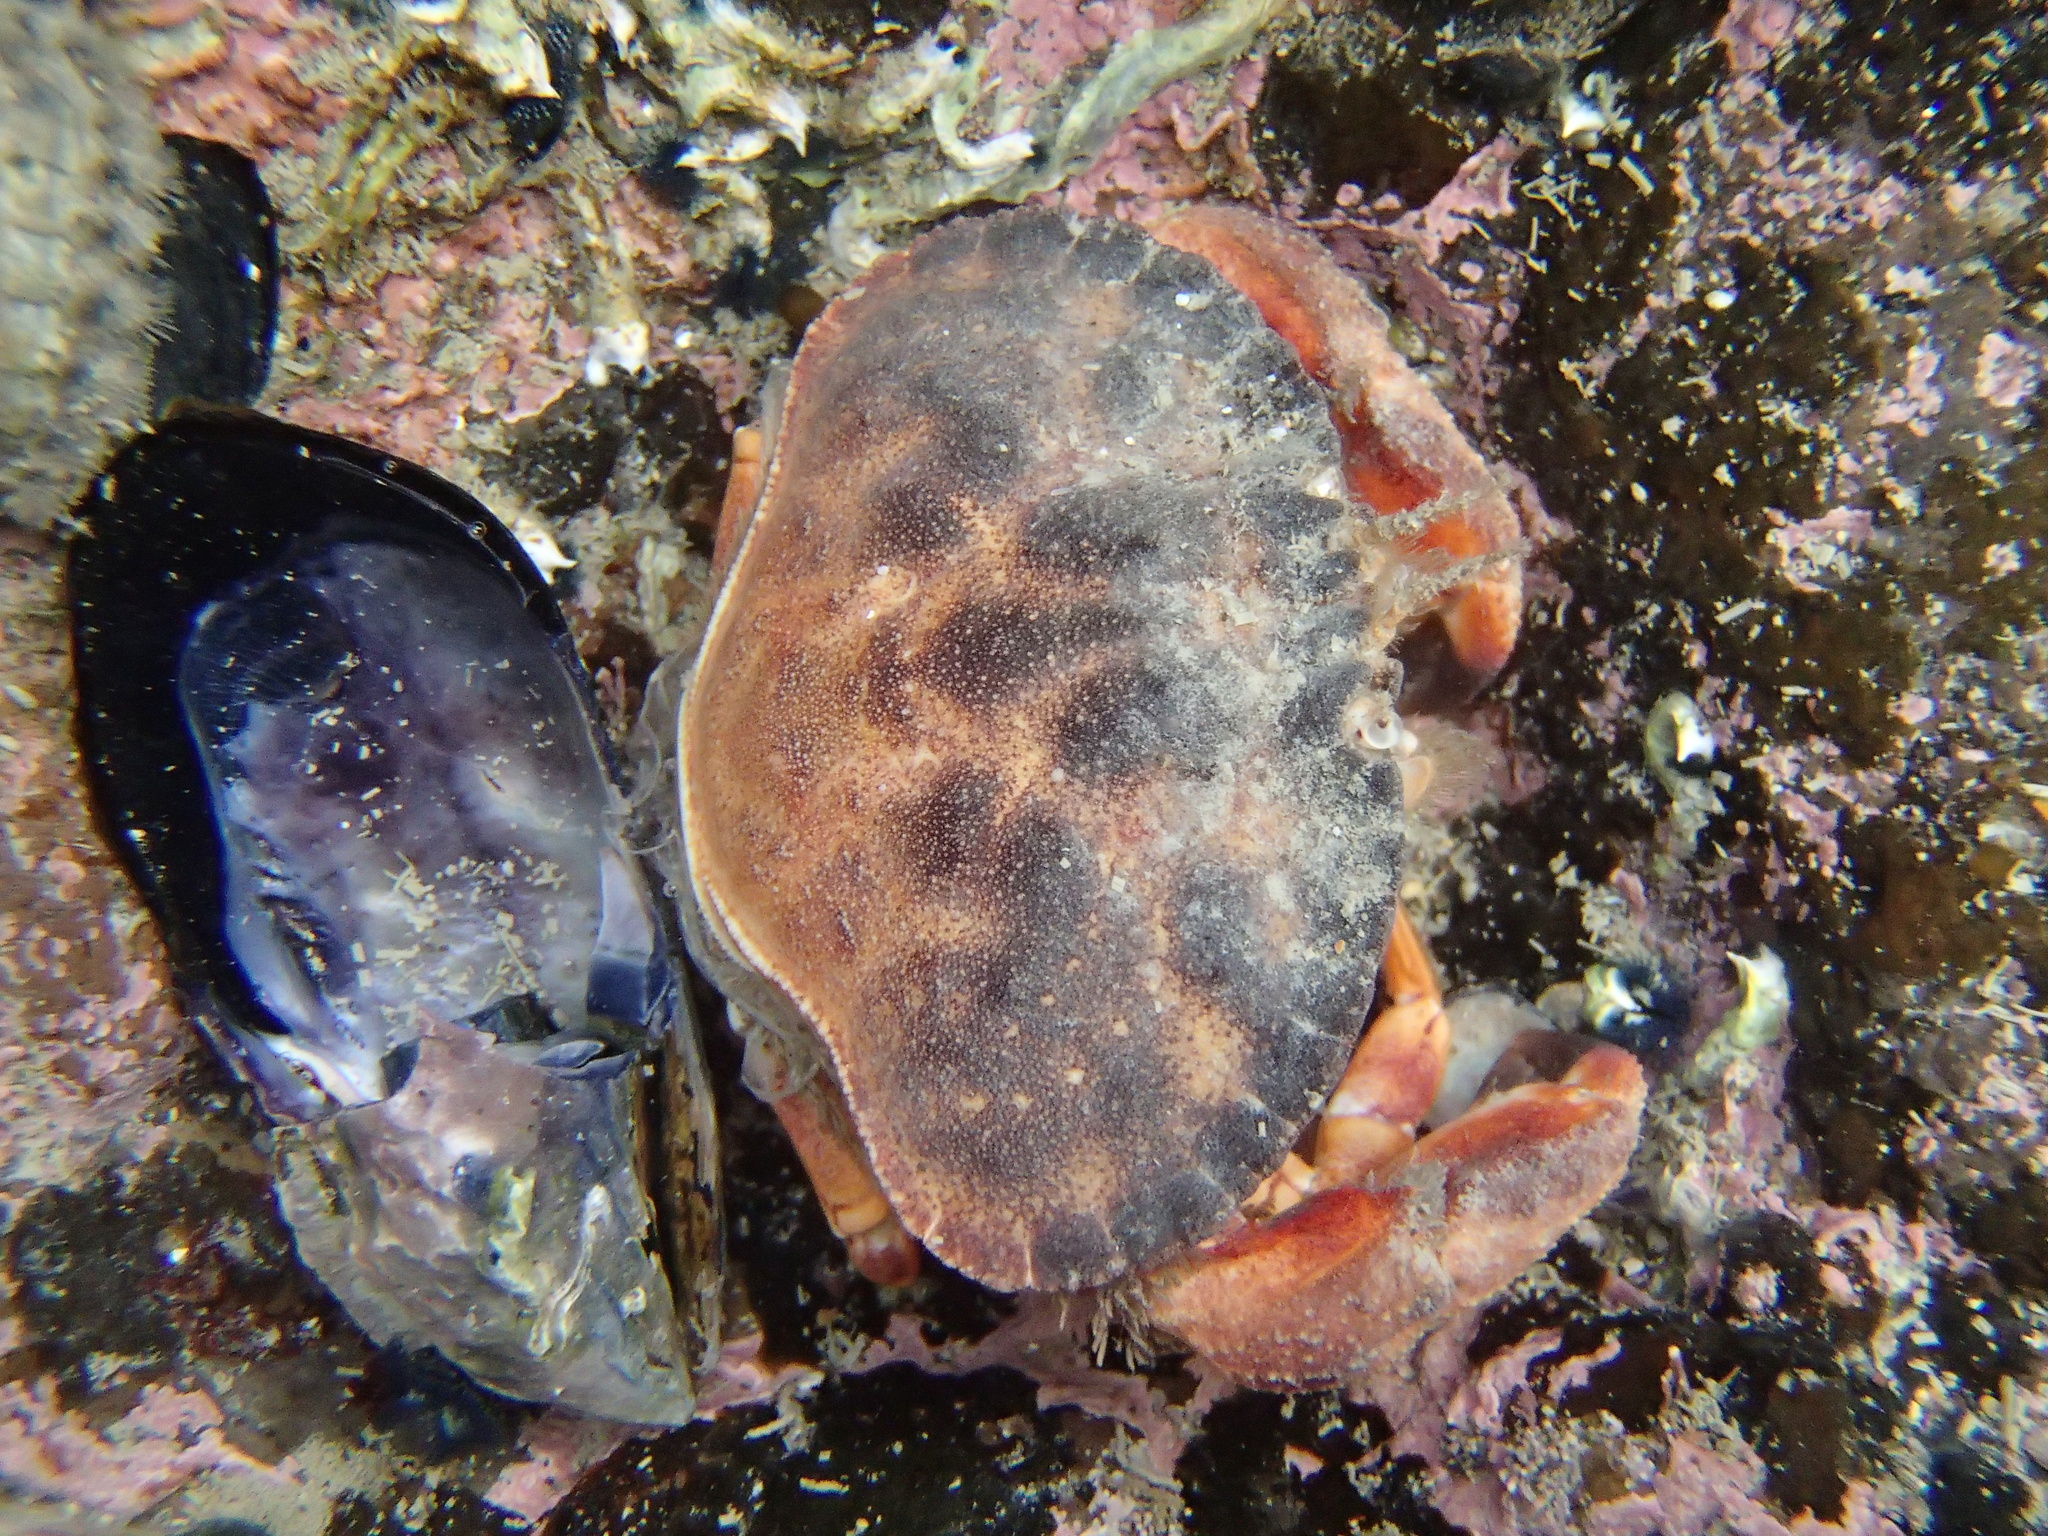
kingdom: Animalia
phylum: Arthropoda
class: Malacostraca
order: Decapoda
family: Cancridae
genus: Metacarcinus
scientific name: Metacarcinus novaezelandiae
